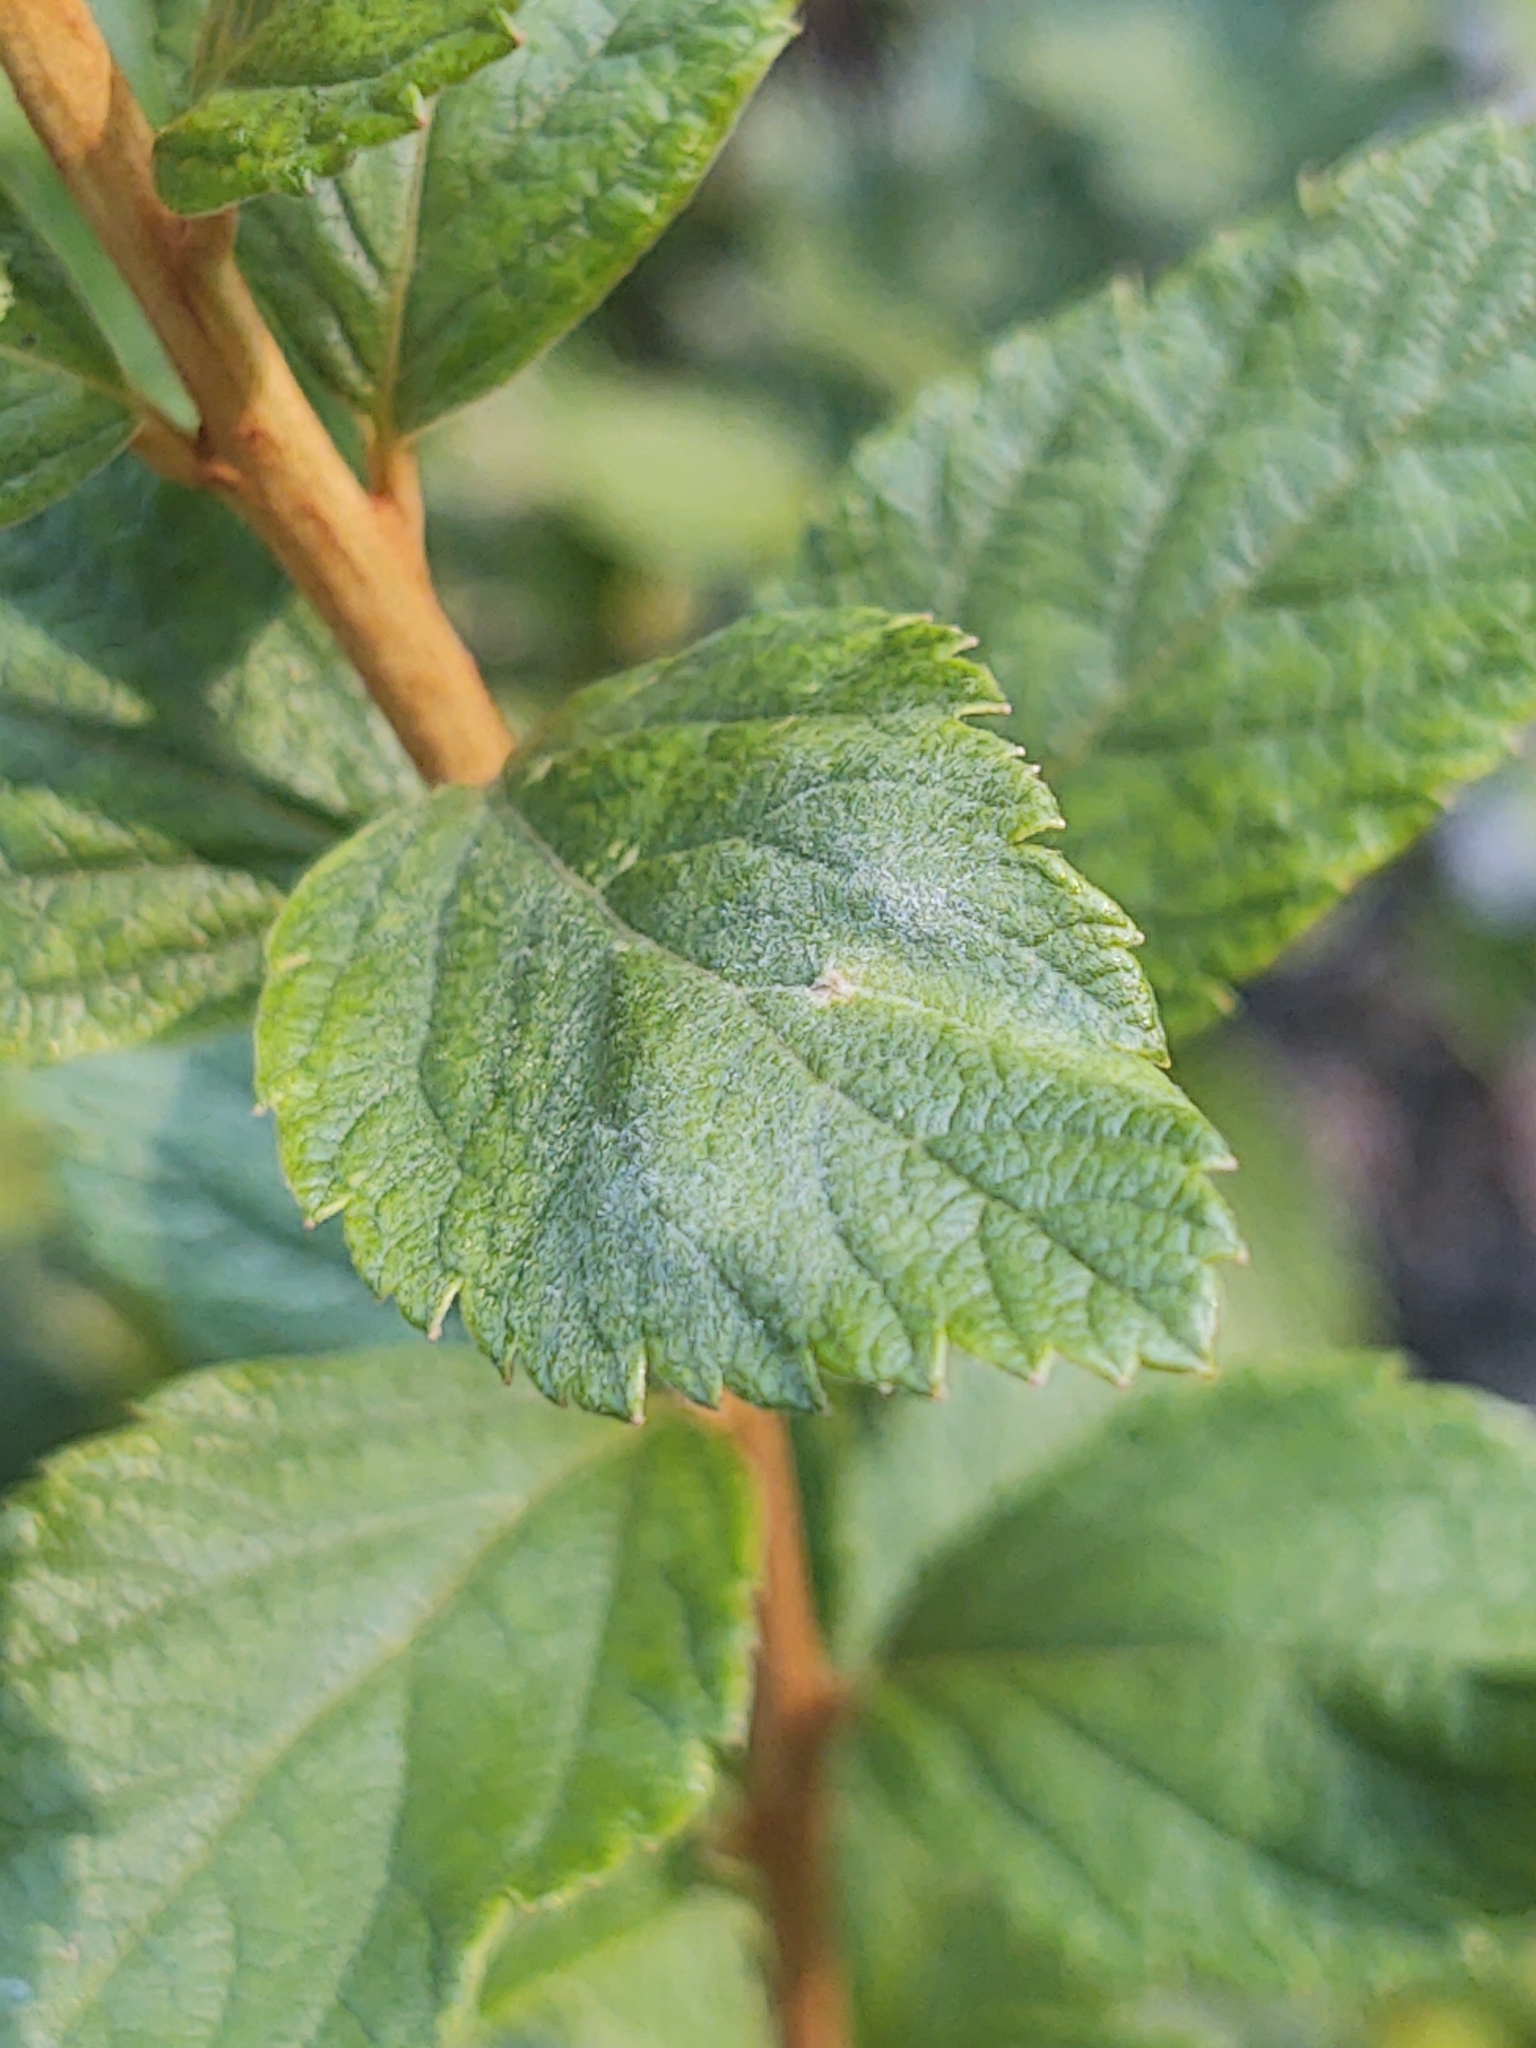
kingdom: Plantae
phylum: Tracheophyta
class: Magnoliopsida
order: Rosales
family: Rosaceae
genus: Spiraea
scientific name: Spiraea tomentosa
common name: Hardhack
